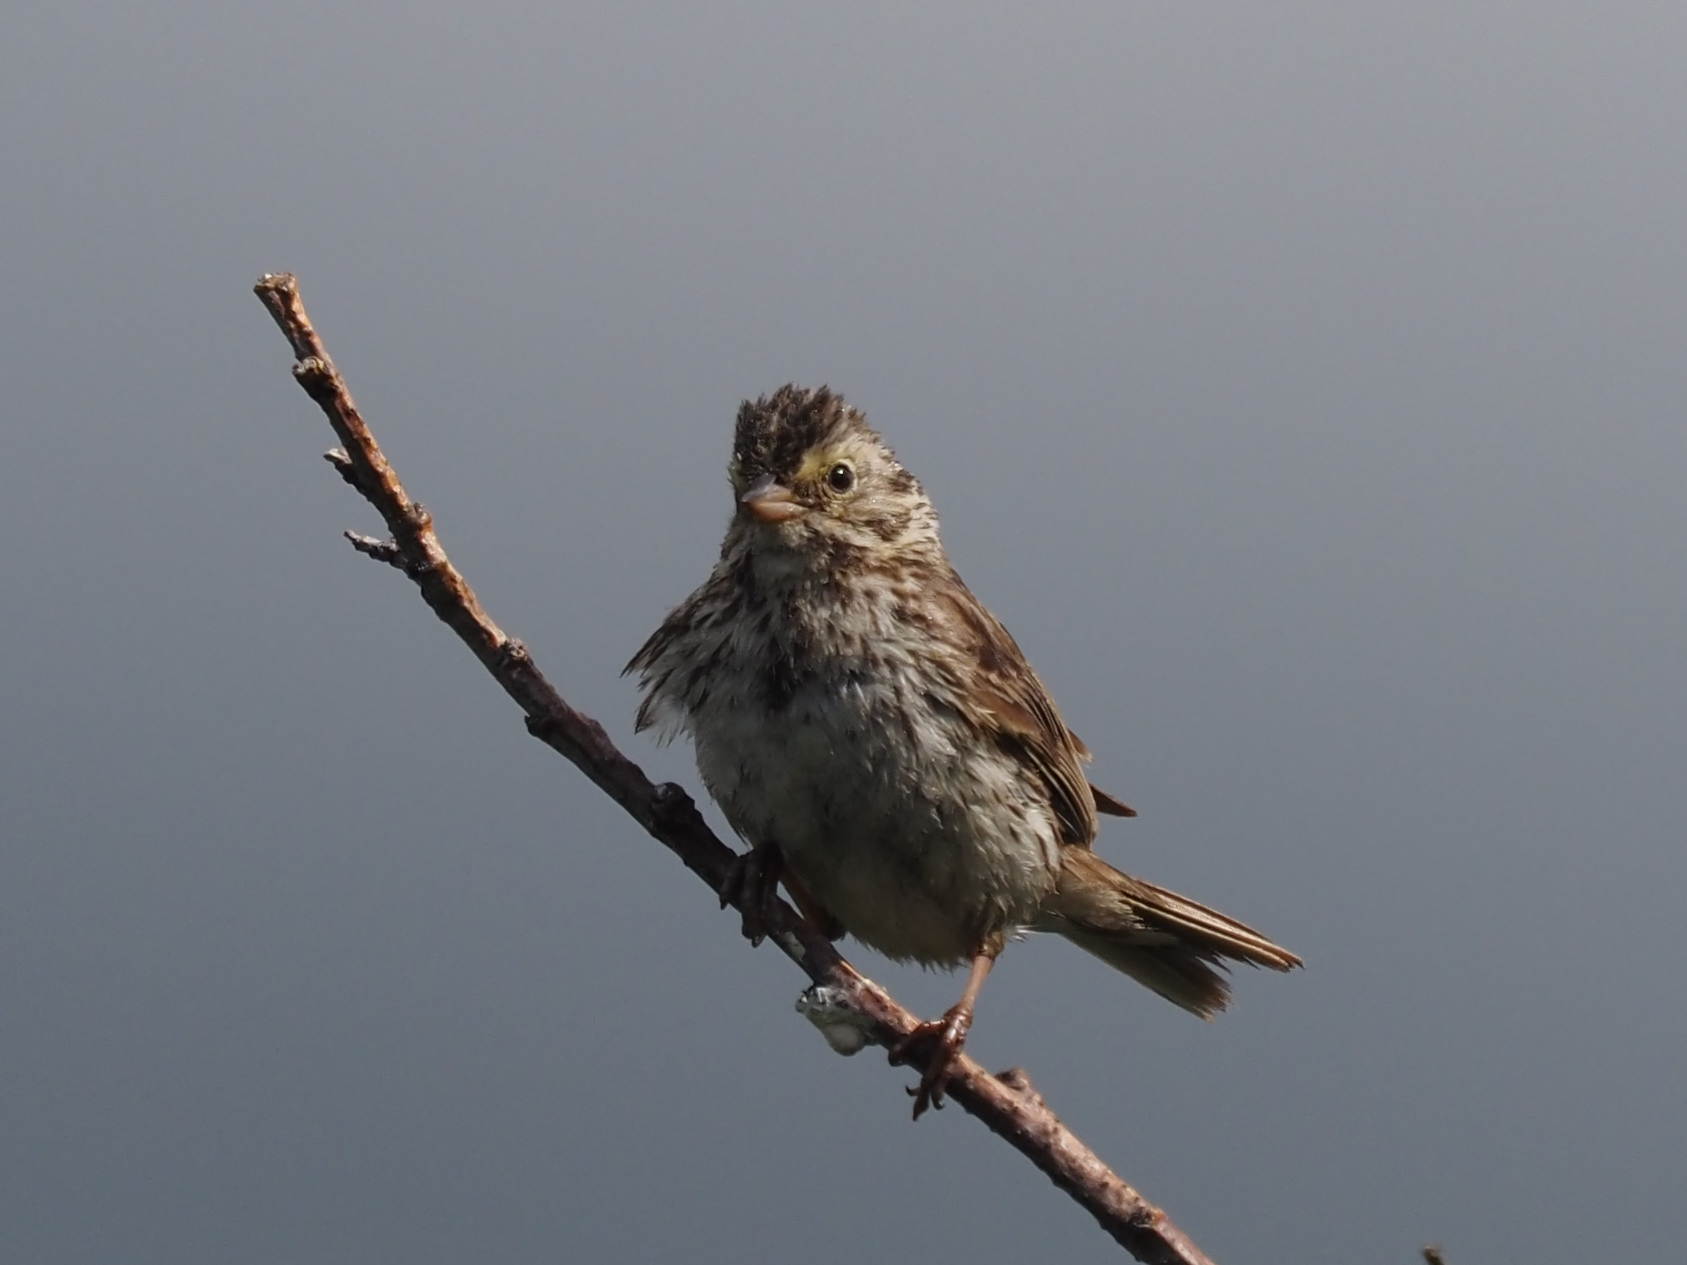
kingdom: Animalia
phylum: Chordata
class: Aves
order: Passeriformes
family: Passerellidae
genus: Passerculus
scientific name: Passerculus sandwichensis
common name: Savannah sparrow
